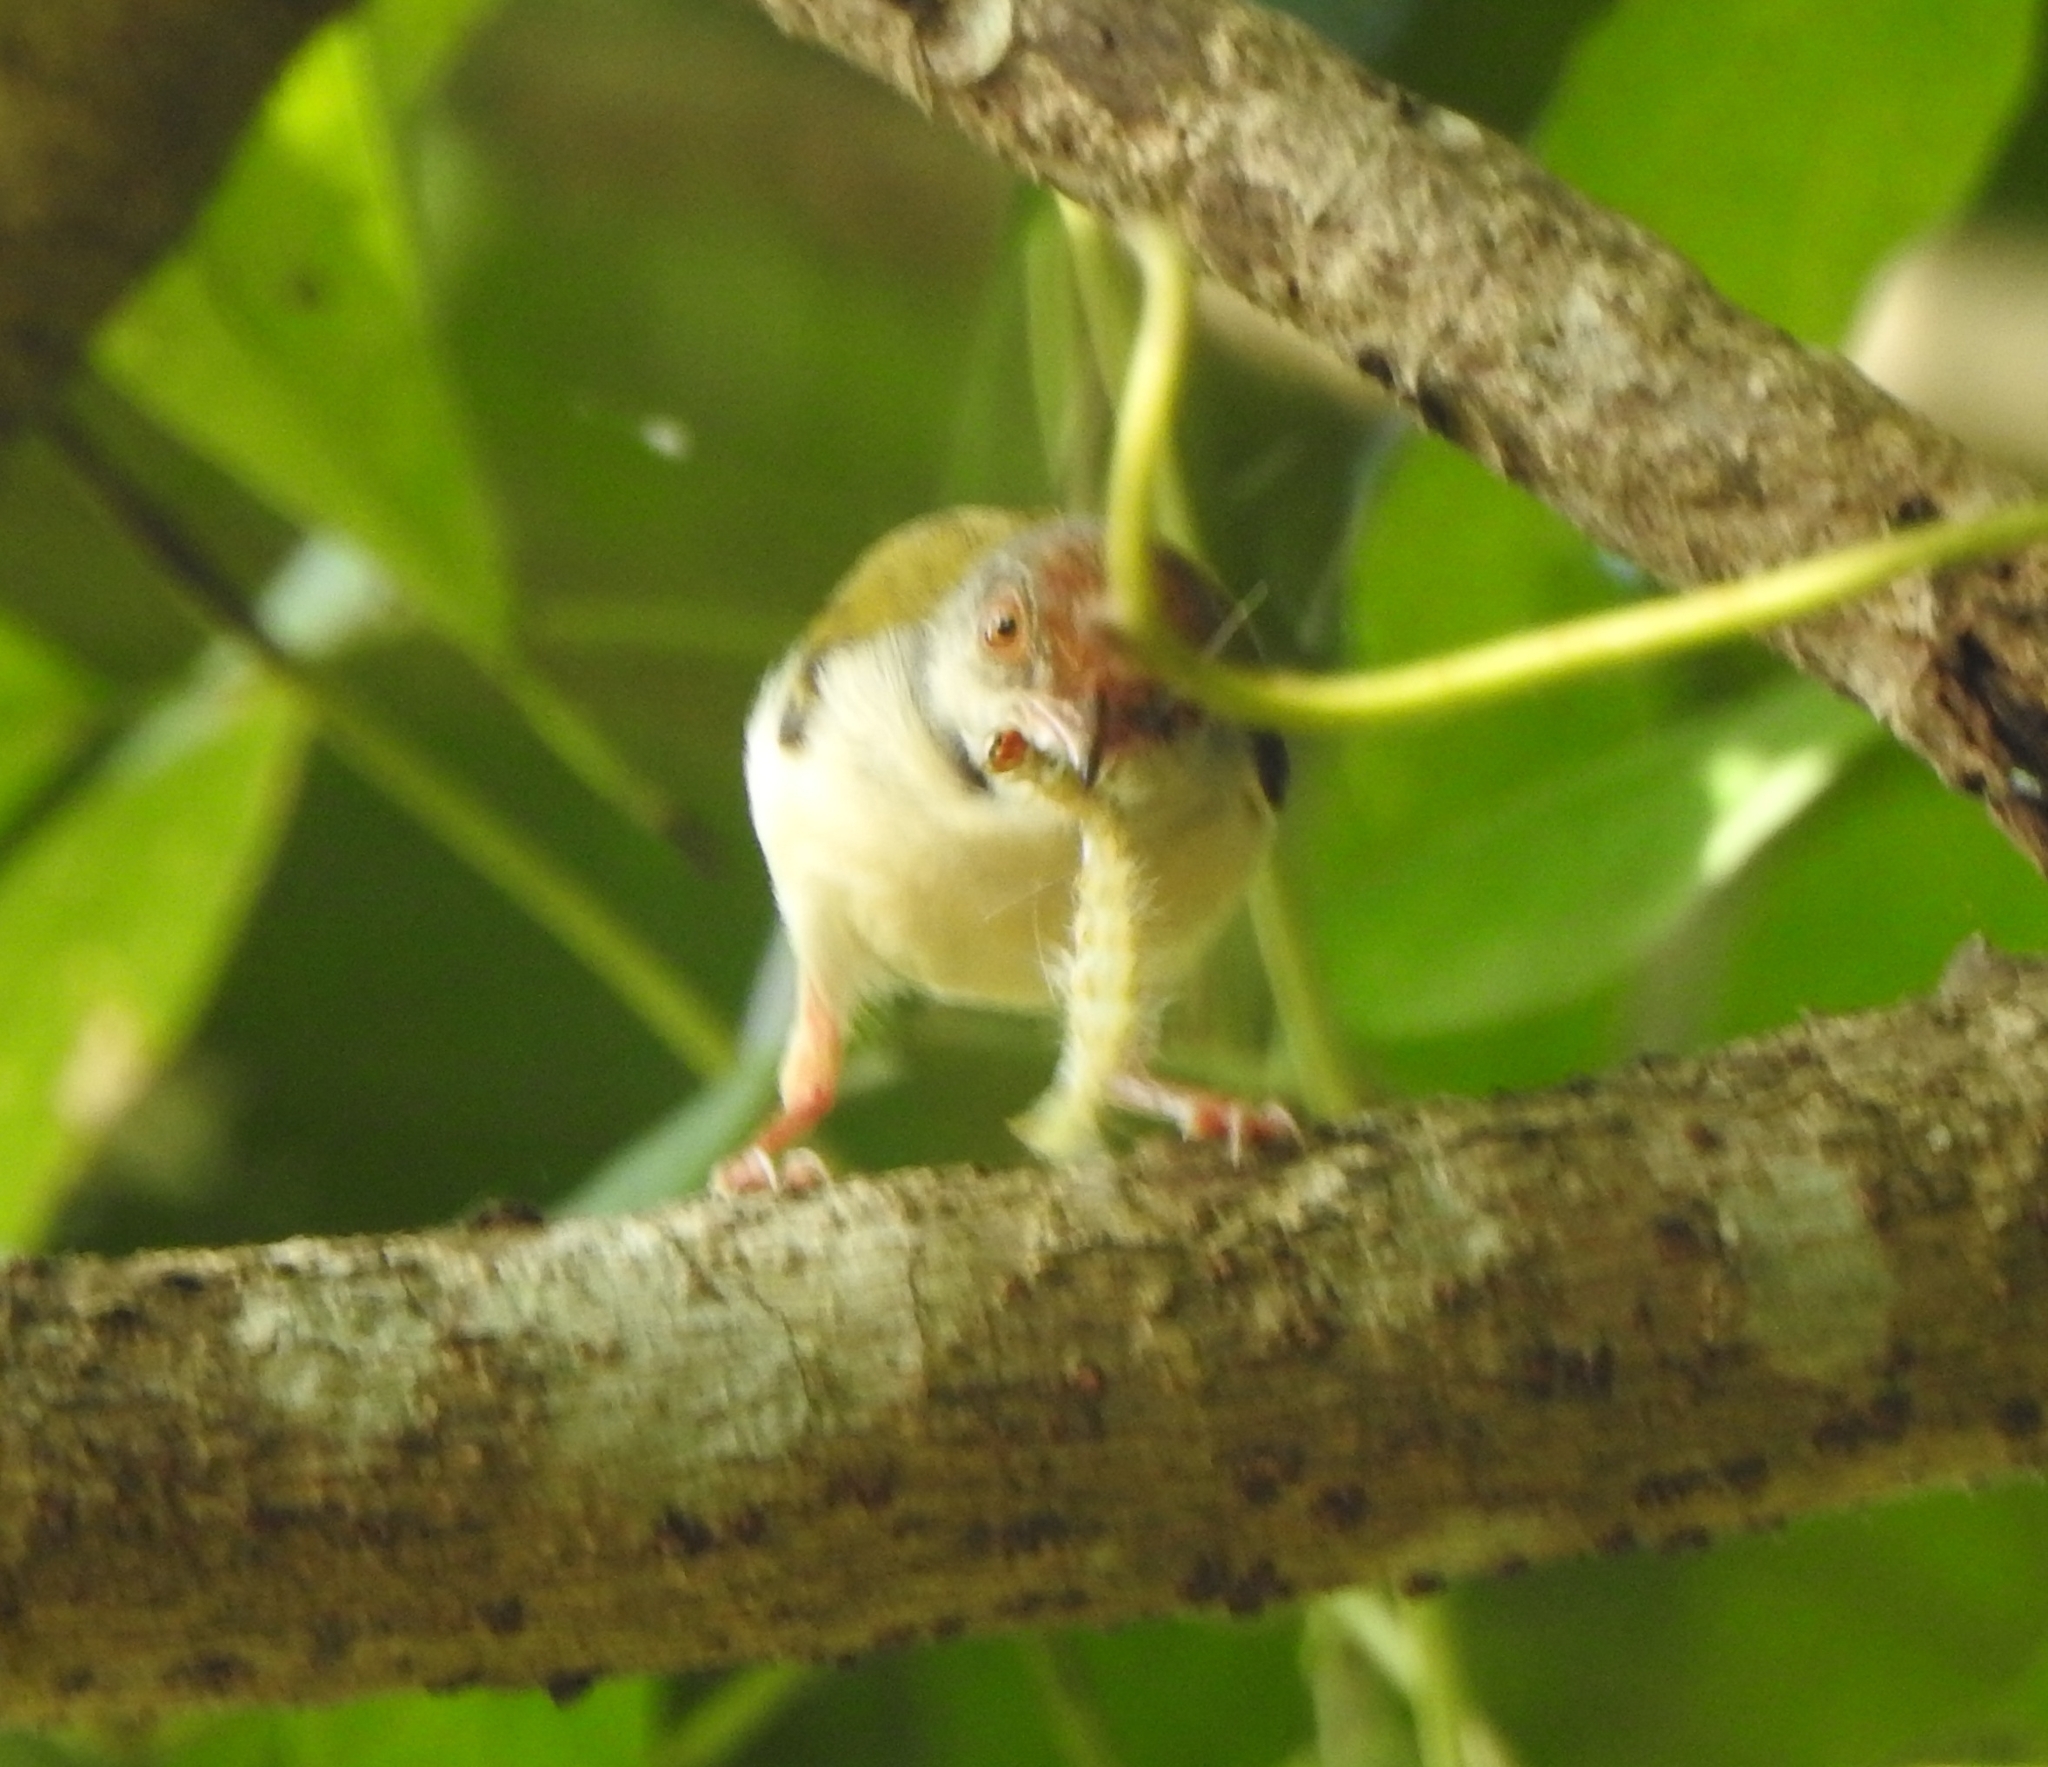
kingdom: Animalia
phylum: Chordata
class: Aves
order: Passeriformes
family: Cisticolidae
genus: Orthotomus
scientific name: Orthotomus sutorius
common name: Common tailorbird
